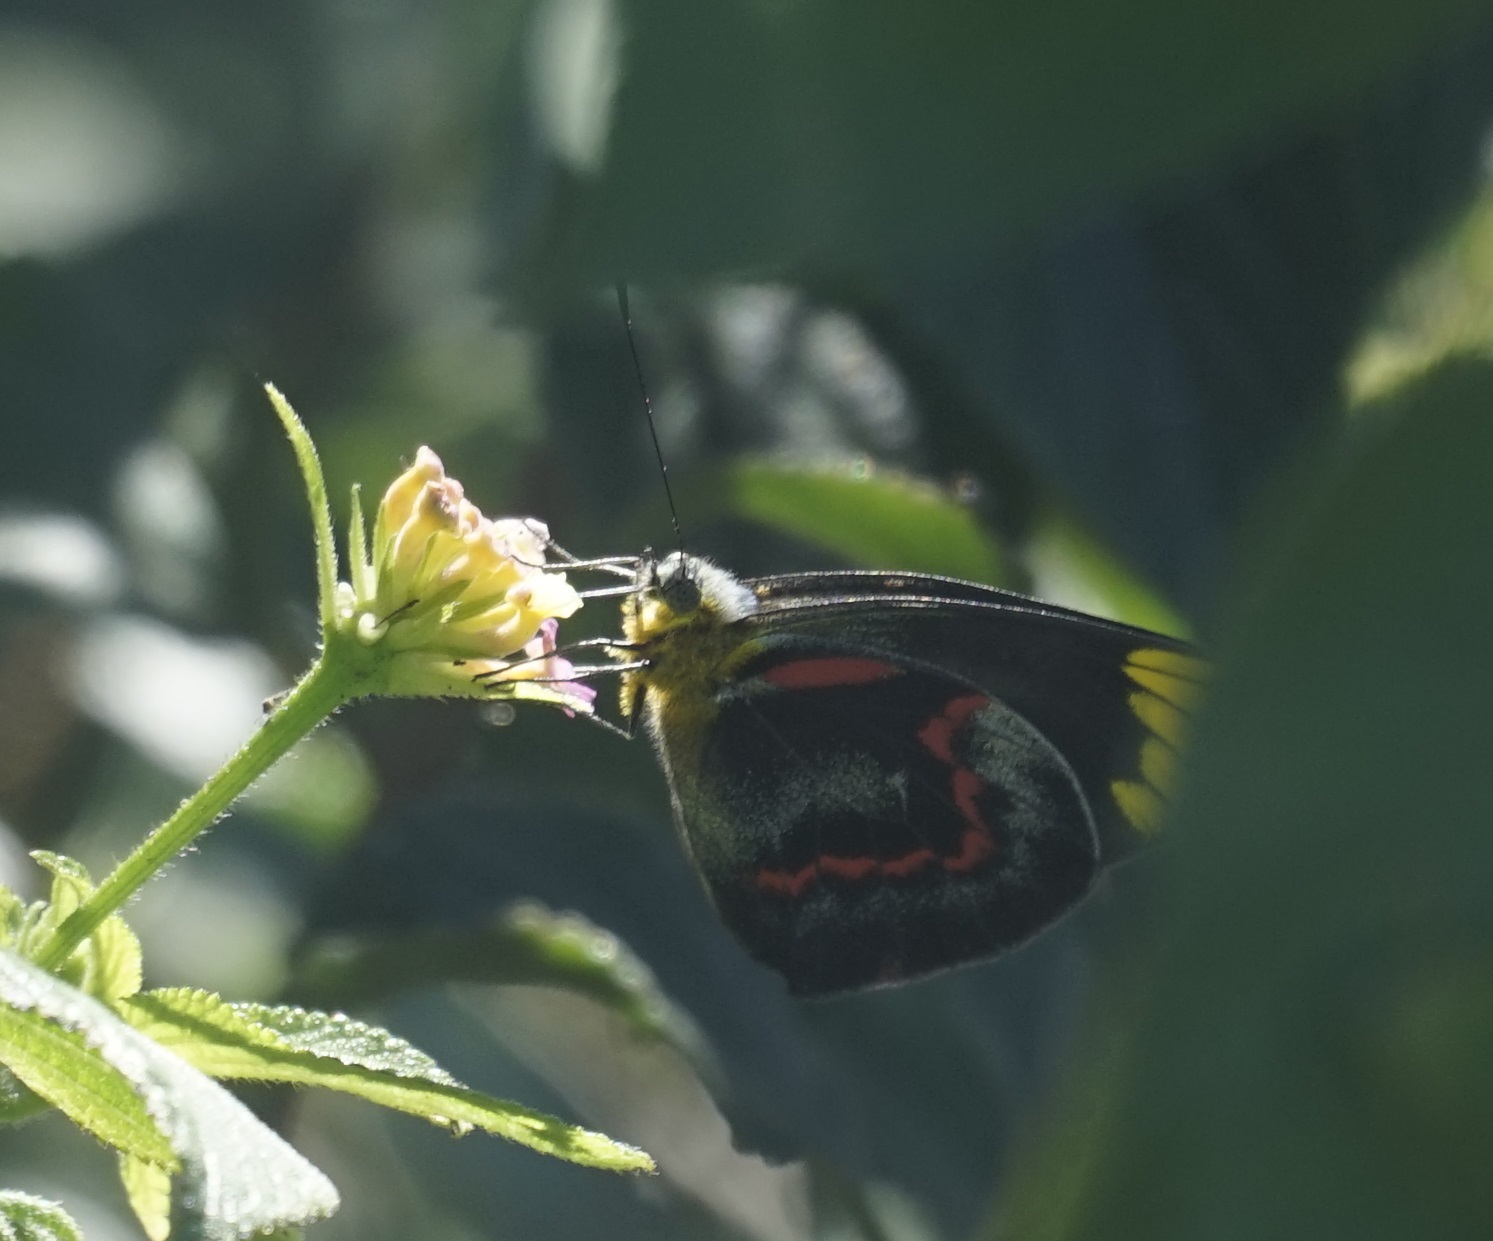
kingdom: Animalia
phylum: Arthropoda
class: Insecta
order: Lepidoptera
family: Pieridae
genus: Delias
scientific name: Delias nigrina
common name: Black jezebel
